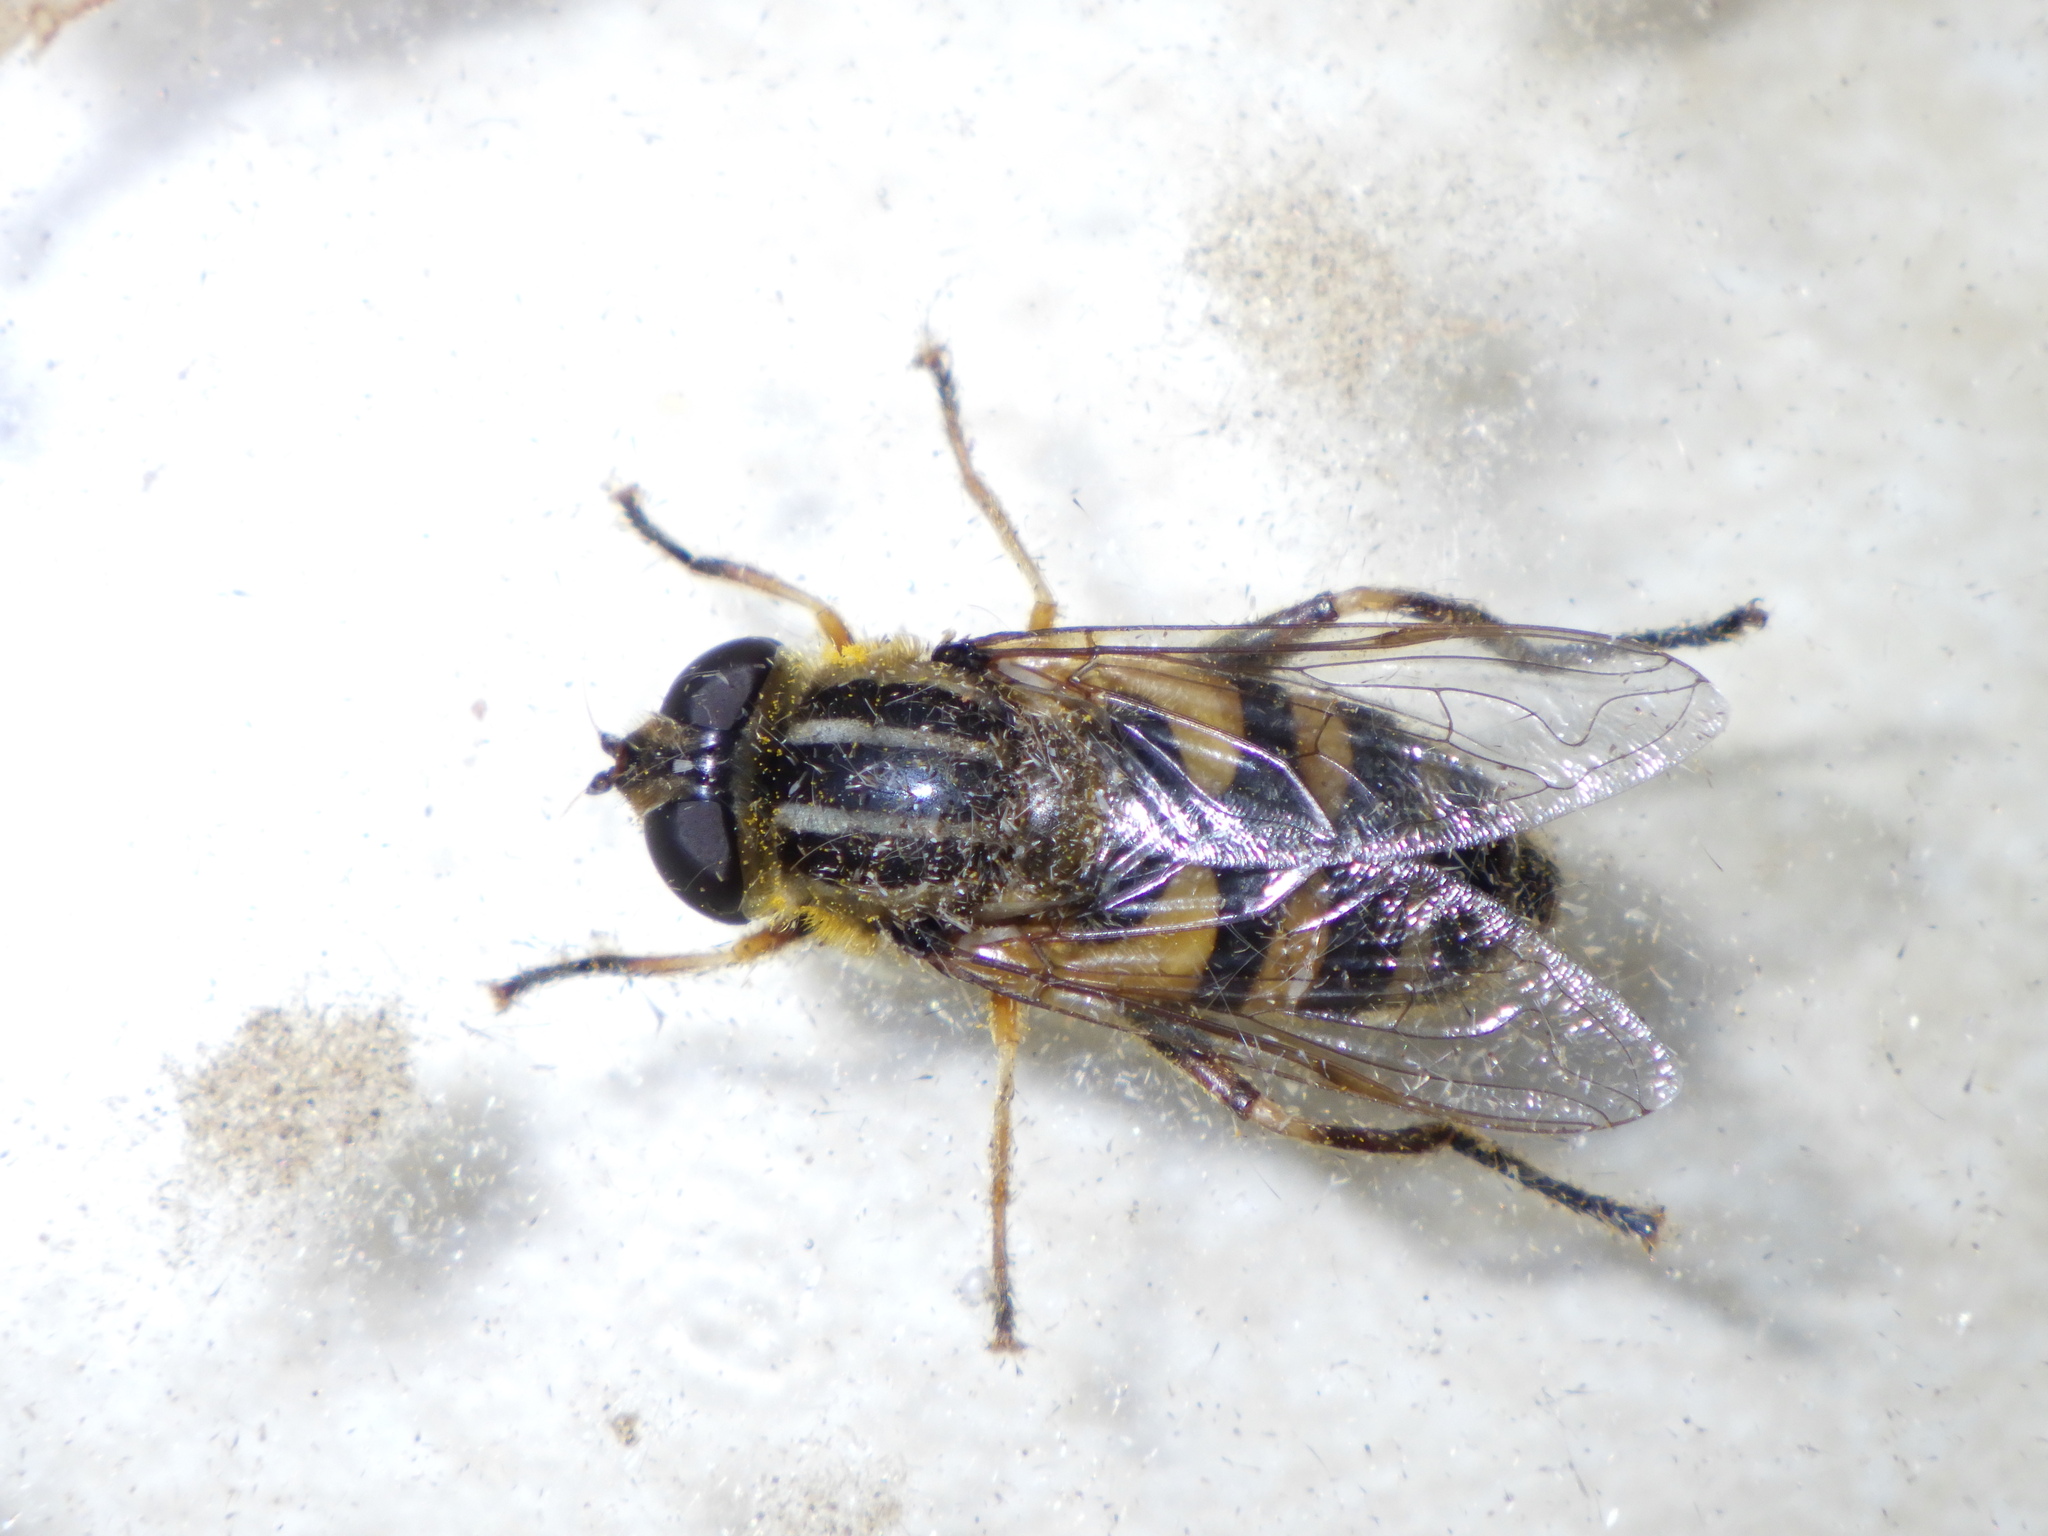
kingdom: Animalia
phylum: Arthropoda
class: Insecta
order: Diptera
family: Syrphidae
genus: Helophilus
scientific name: Helophilus fasciatus
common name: Narrow-headed marsh fly
